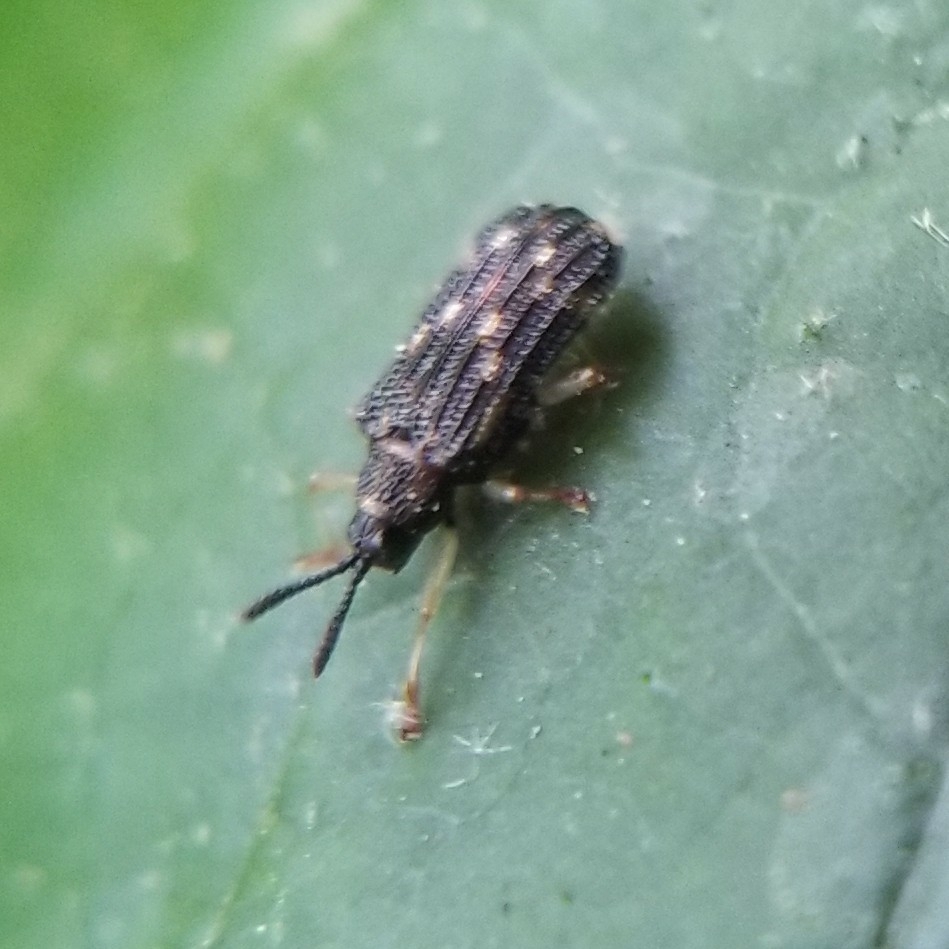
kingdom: Animalia
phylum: Arthropoda
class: Insecta
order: Coleoptera
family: Chrysomelidae
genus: Sumitrosis
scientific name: Sumitrosis inaequalis
